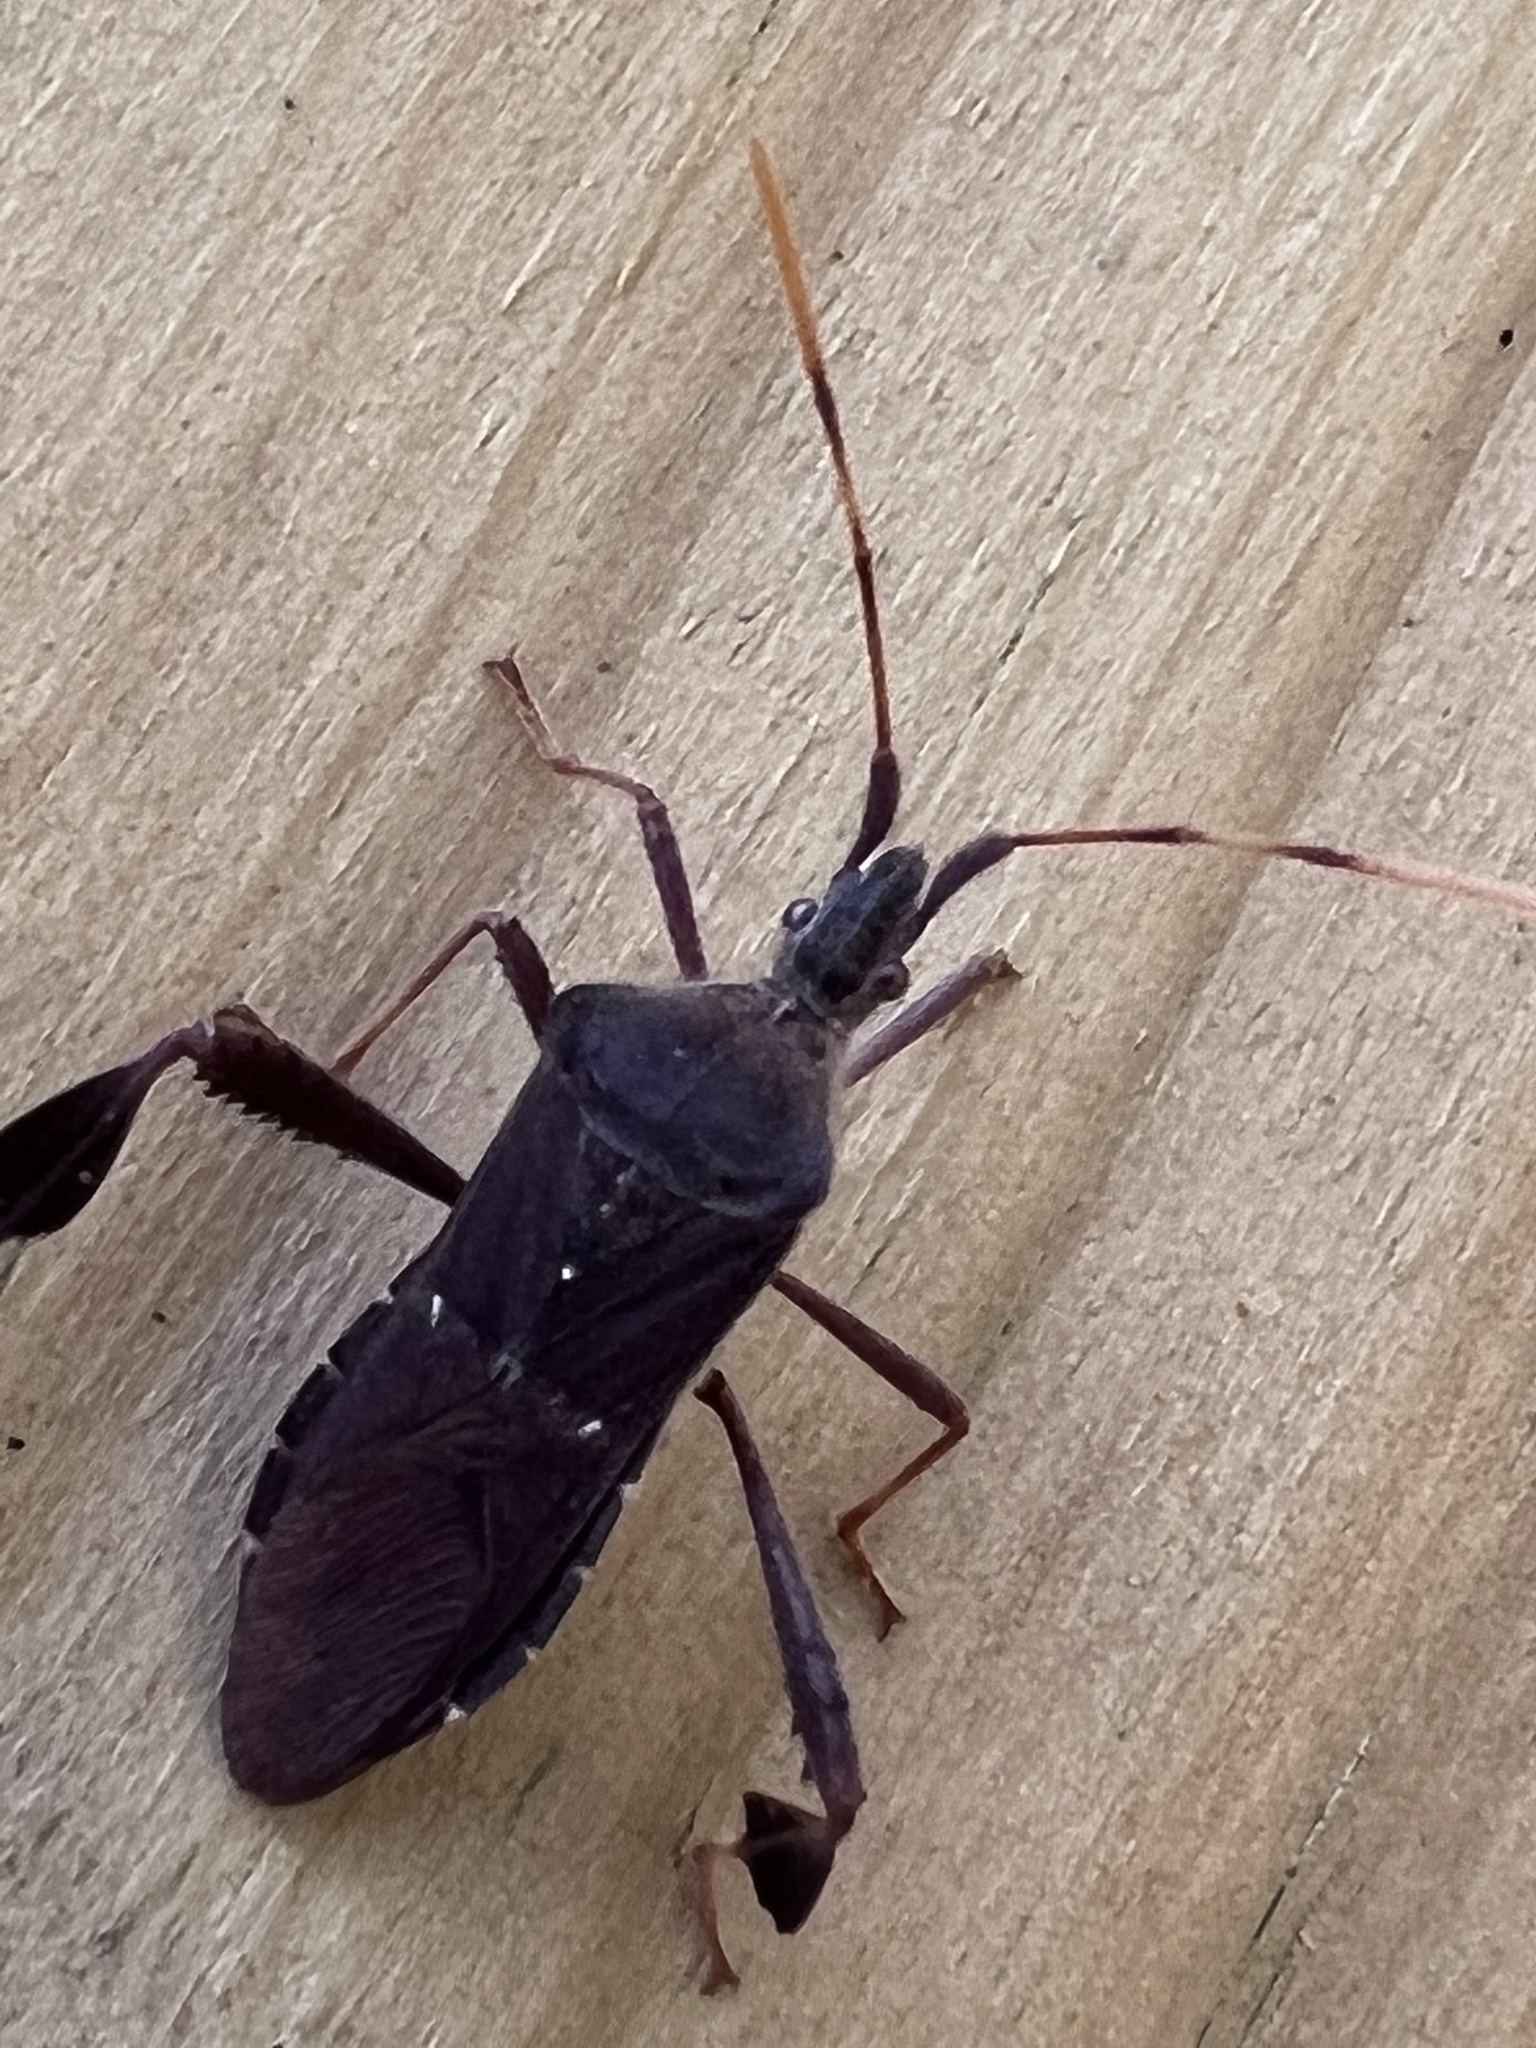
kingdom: Animalia
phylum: Arthropoda
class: Insecta
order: Hemiptera
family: Coreidae
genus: Leptoglossus
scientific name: Leptoglossus oppositus
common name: Northern leaf-footed bug
